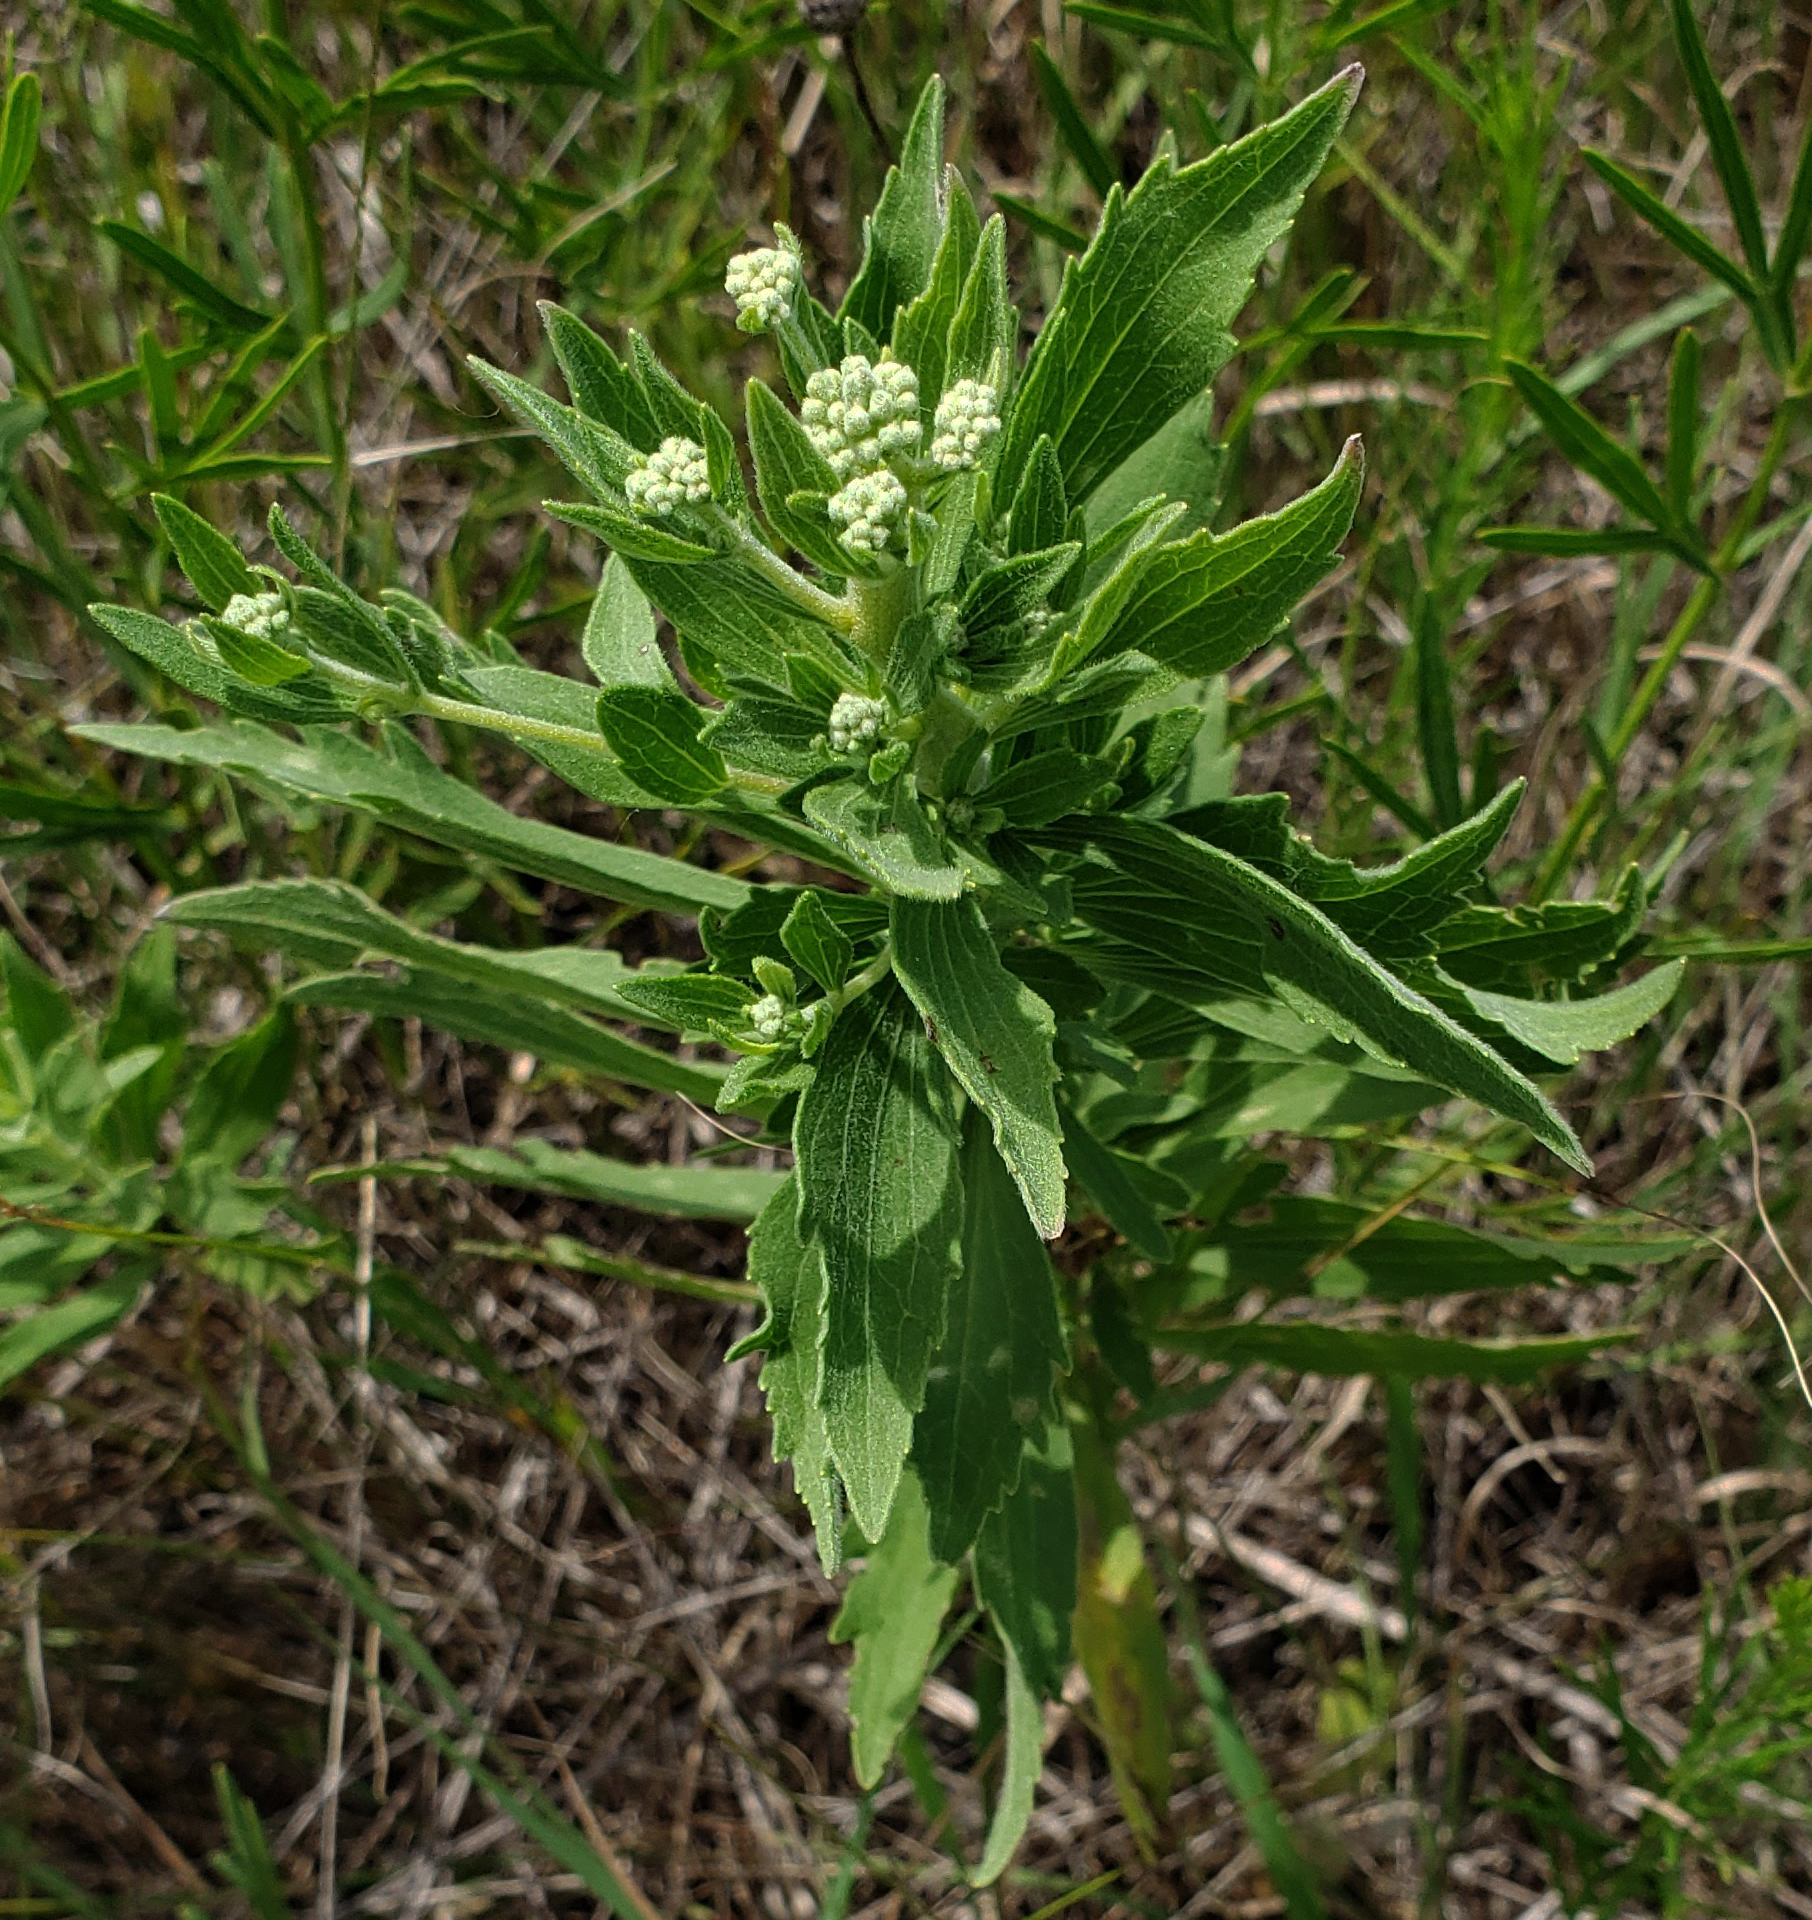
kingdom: Plantae
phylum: Tracheophyta
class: Magnoliopsida
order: Asterales
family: Asteraceae
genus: Eupatorium
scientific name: Eupatorium altissimum
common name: Tall thoroughwort
